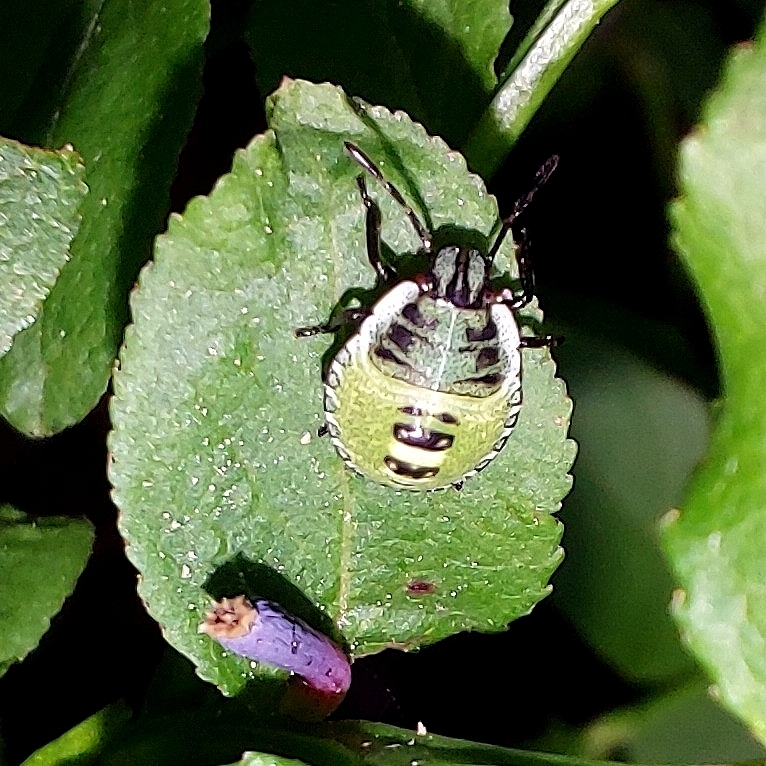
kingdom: Animalia
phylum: Arthropoda
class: Insecta
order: Hemiptera
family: Pentatomidae
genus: Palomena
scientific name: Palomena prasina
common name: Green shieldbug
